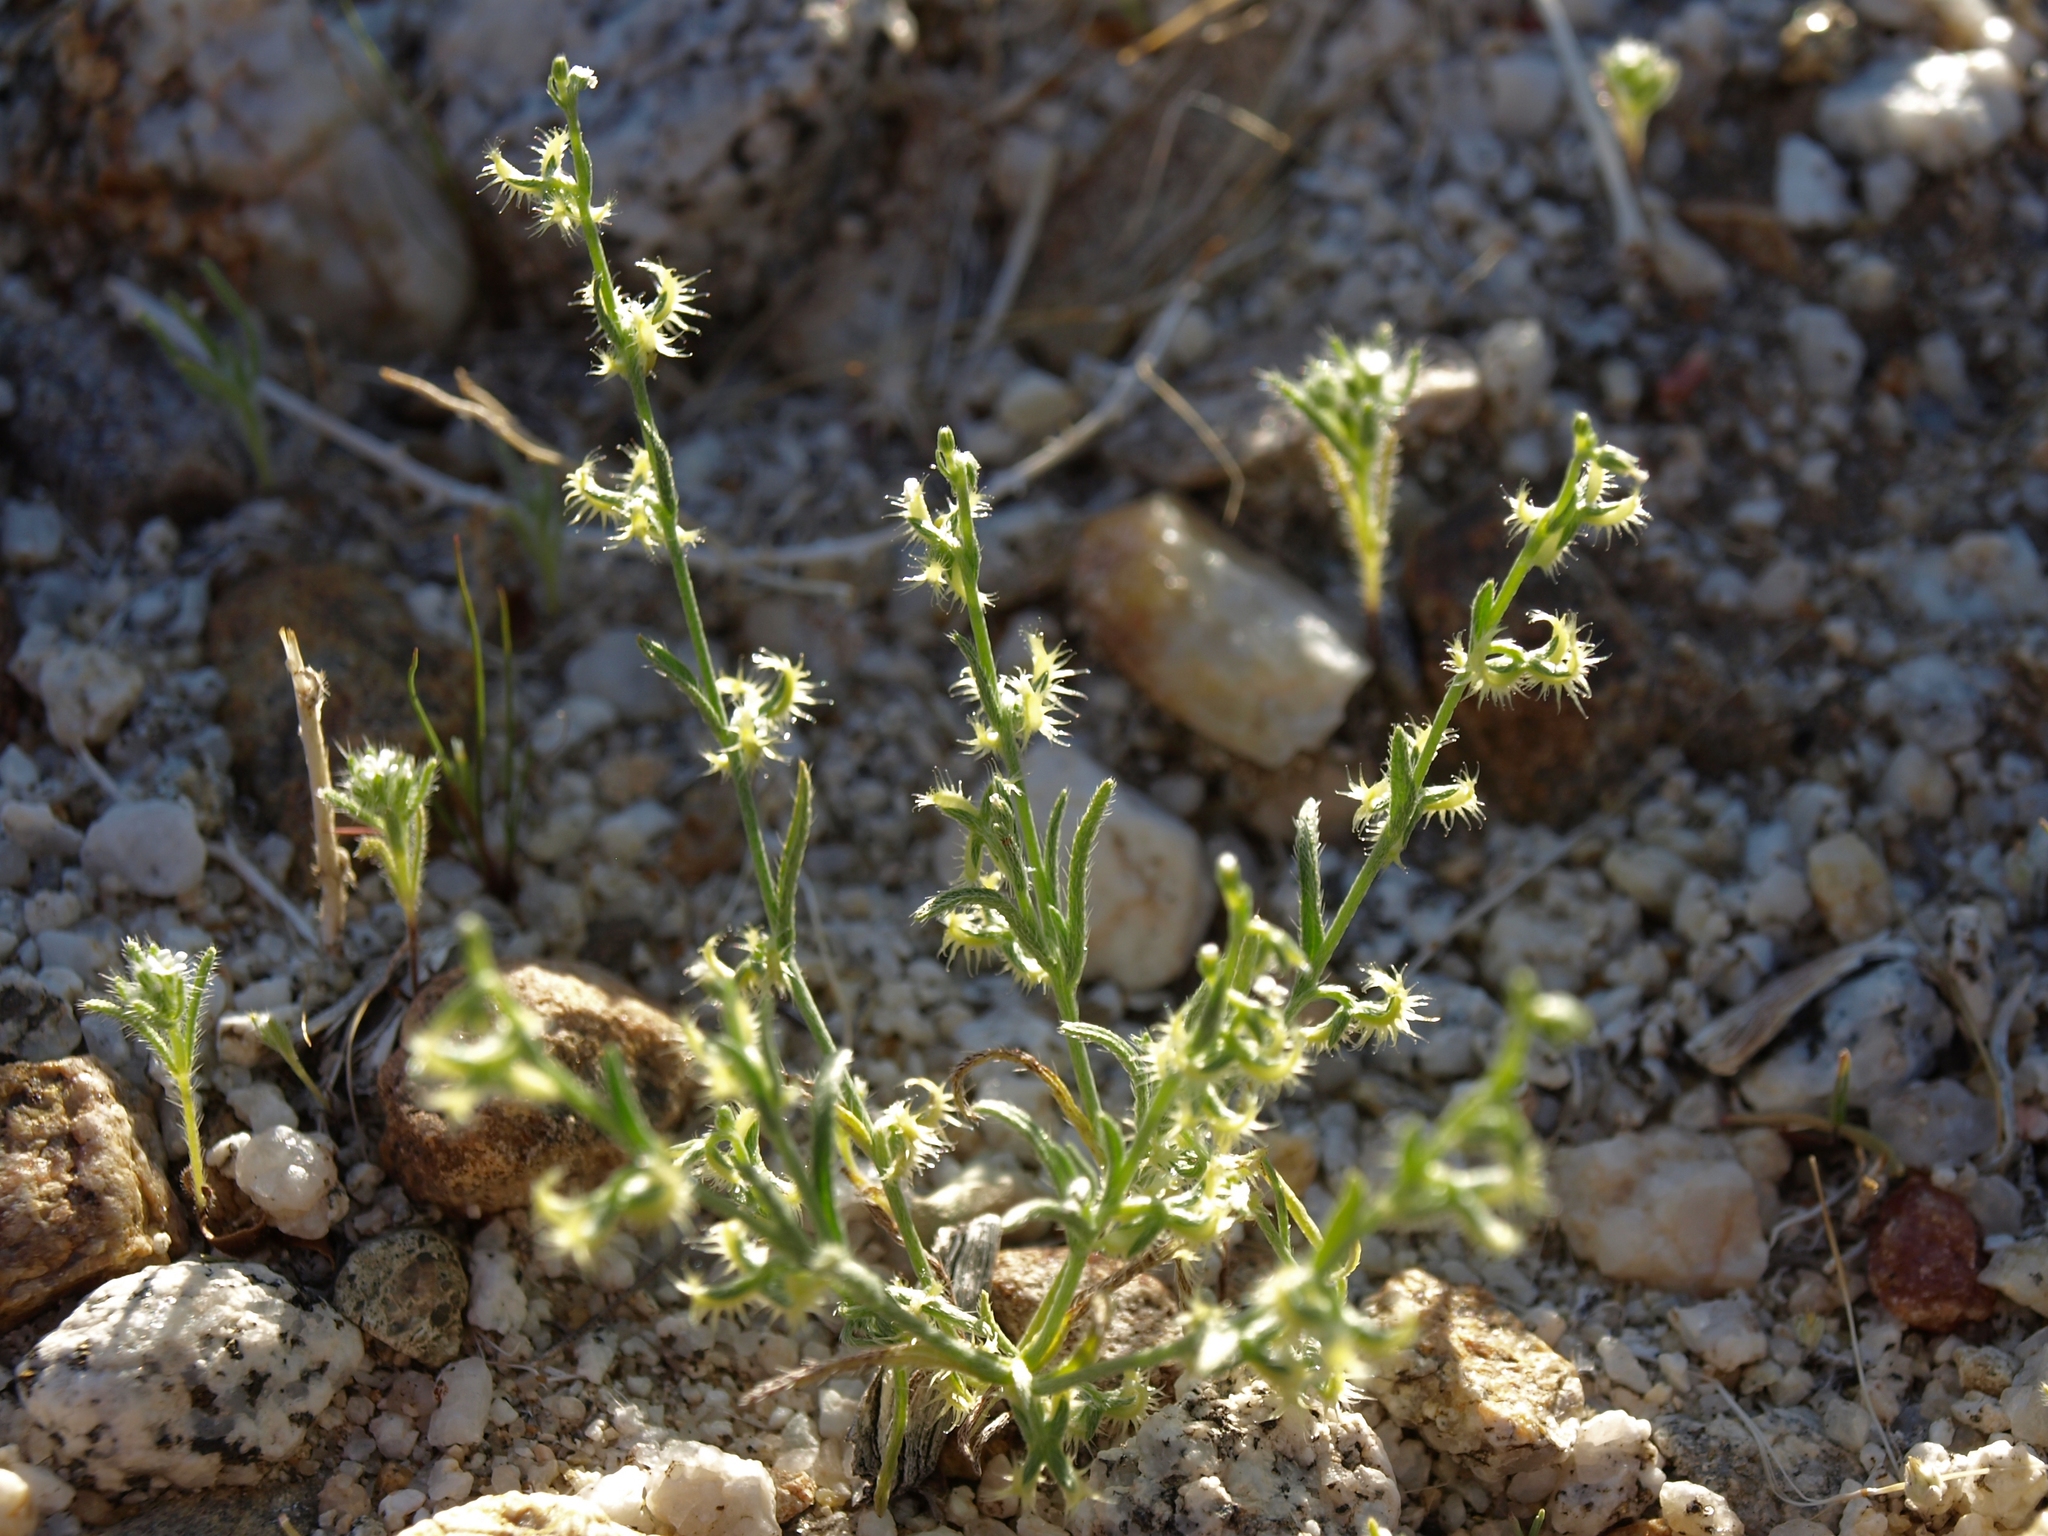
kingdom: Plantae
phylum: Tracheophyta
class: Magnoliopsida
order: Boraginales
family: Boraginaceae
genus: Pectocarya
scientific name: Pectocarya recurvata
